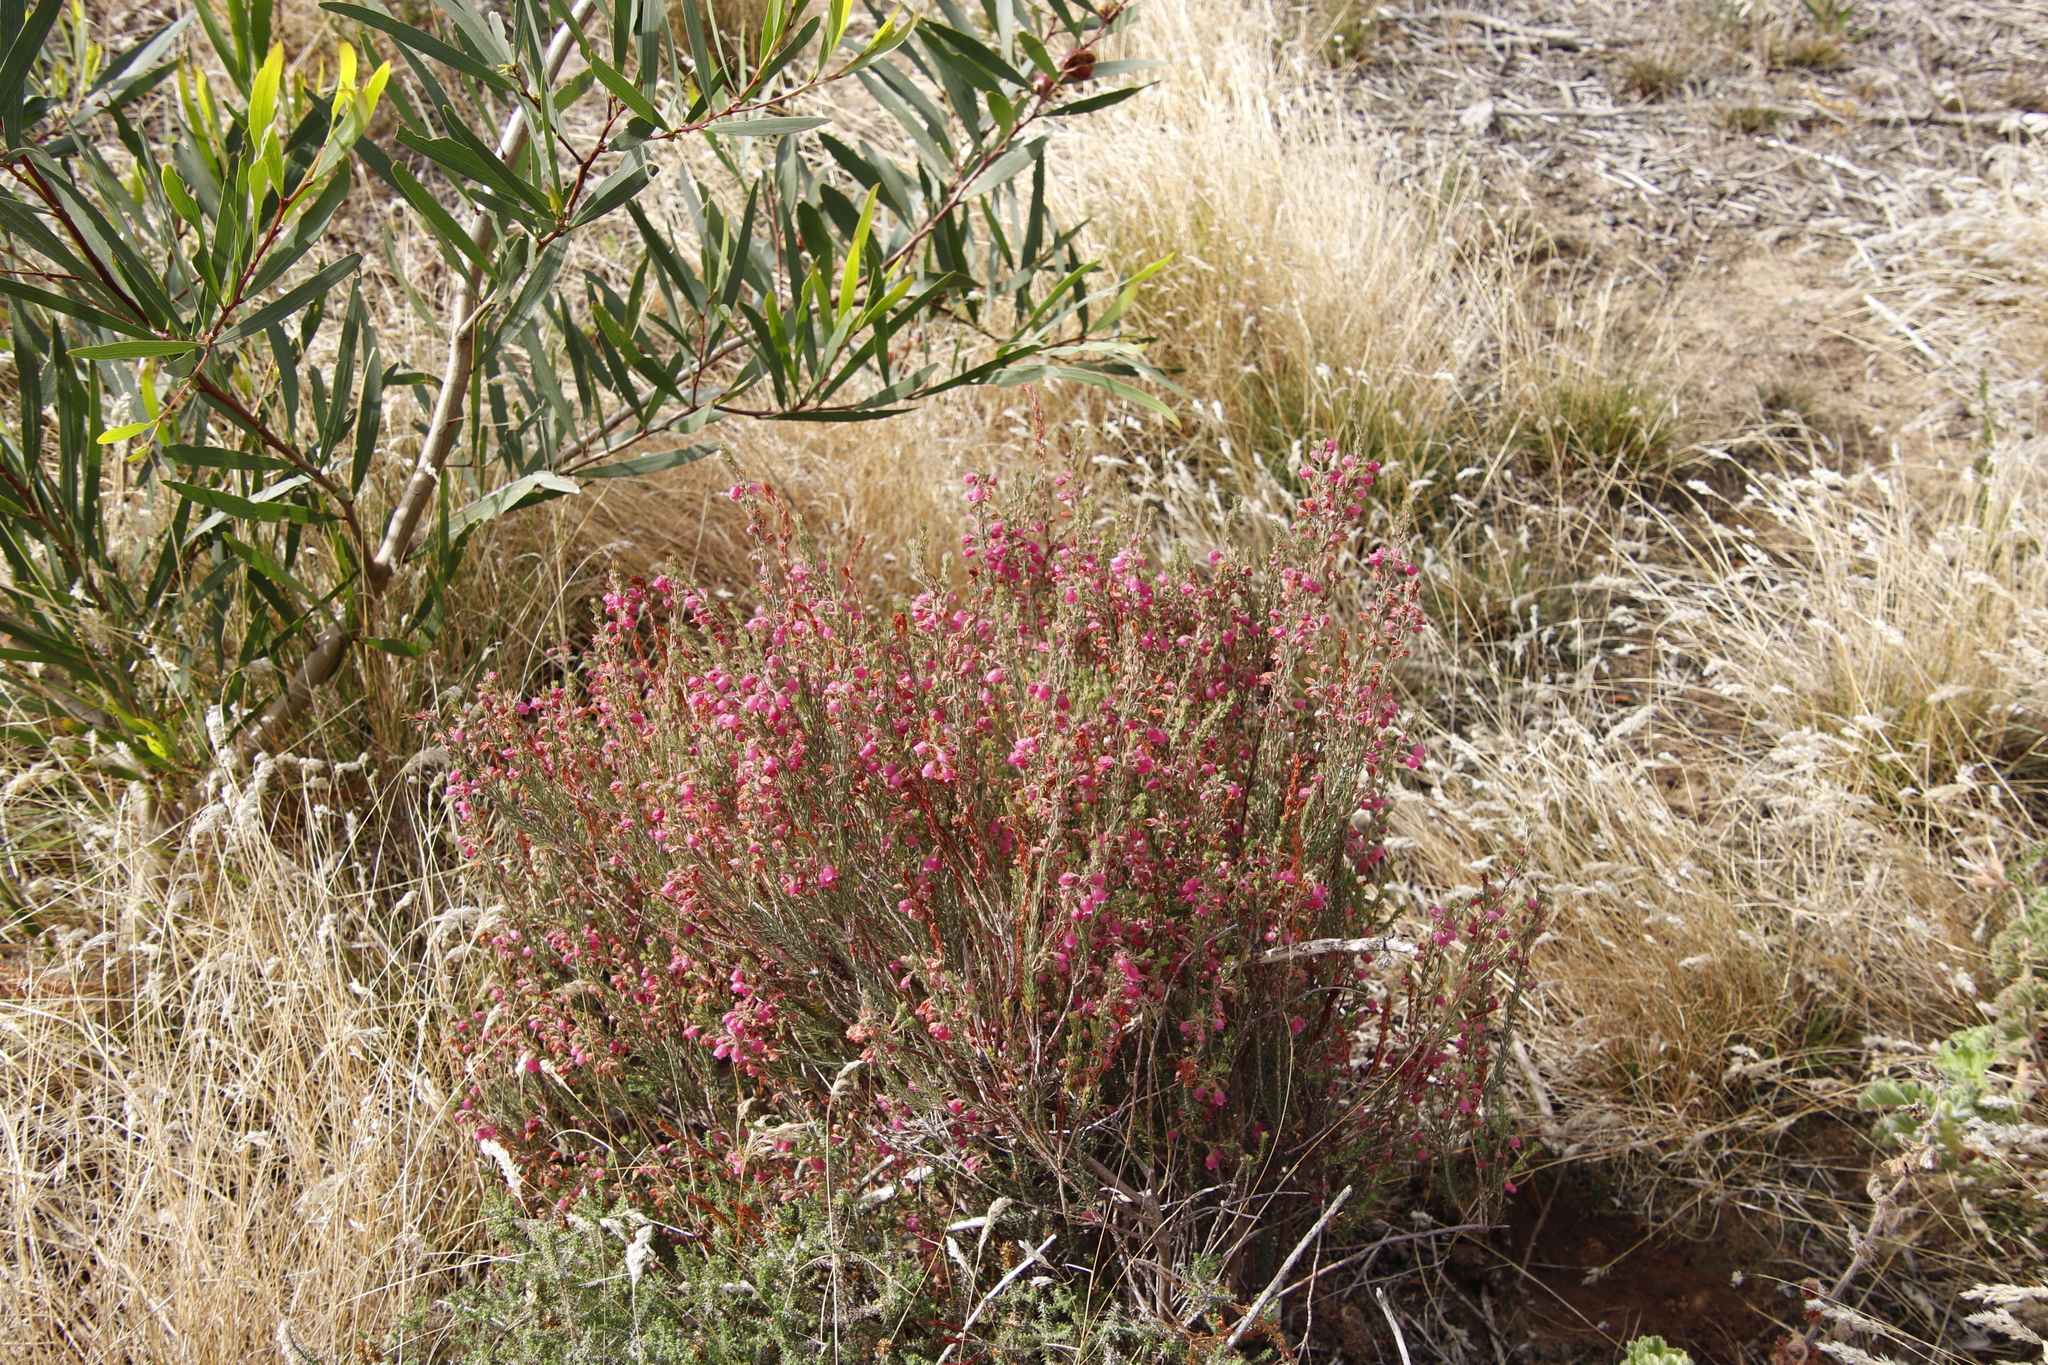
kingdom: Plantae
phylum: Tracheophyta
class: Magnoliopsida
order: Ericales
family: Ericaceae
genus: Erica
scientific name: Erica viscaria
